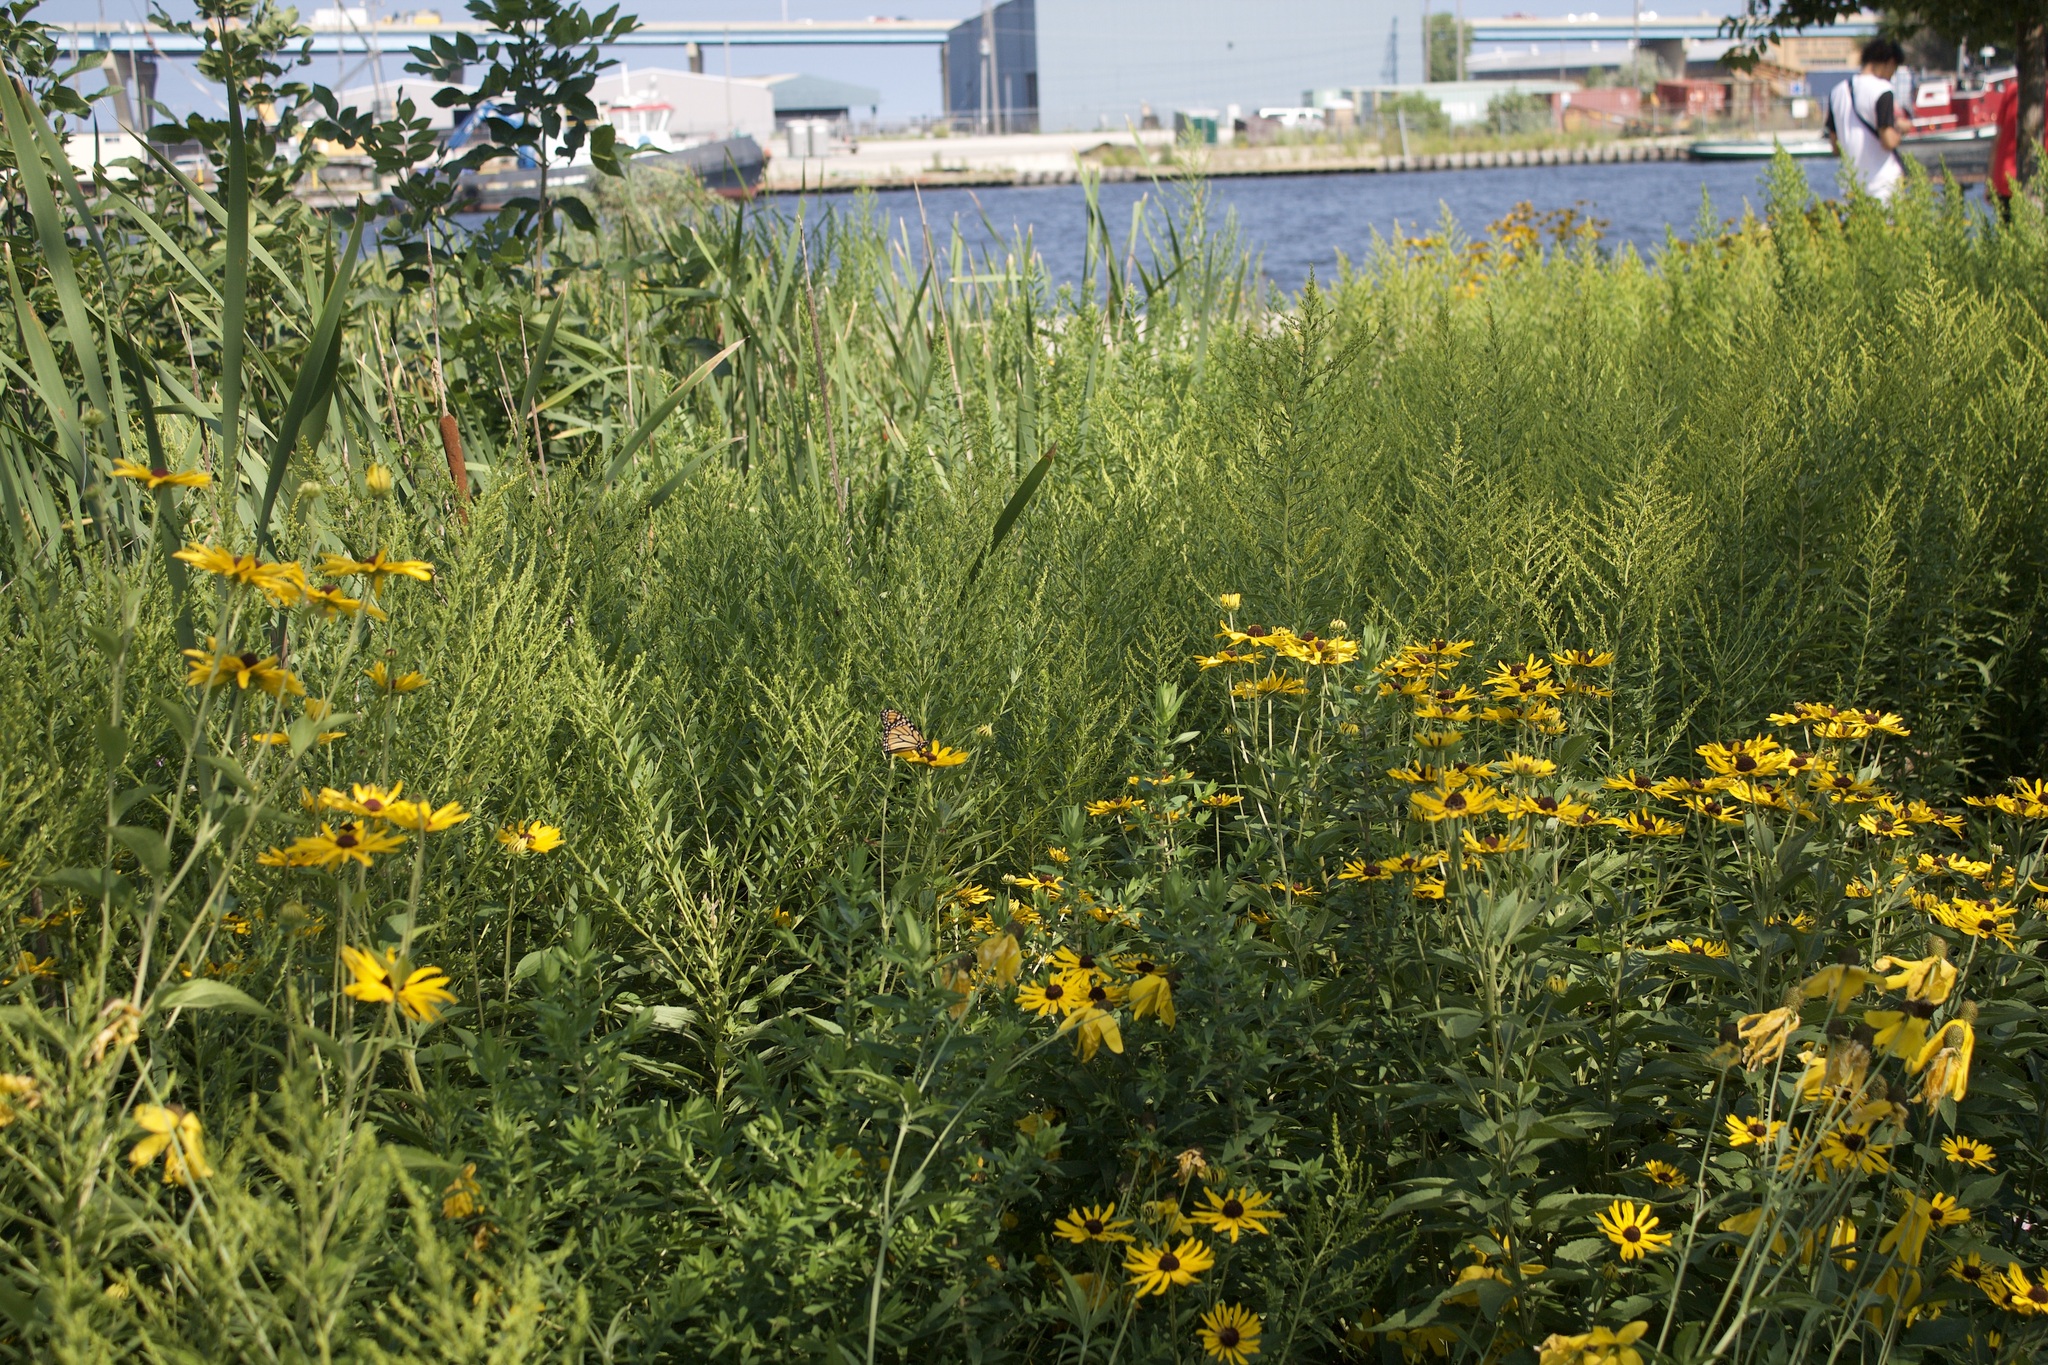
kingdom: Animalia
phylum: Arthropoda
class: Insecta
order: Lepidoptera
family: Nymphalidae
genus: Danaus
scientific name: Danaus plexippus
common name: Monarch
